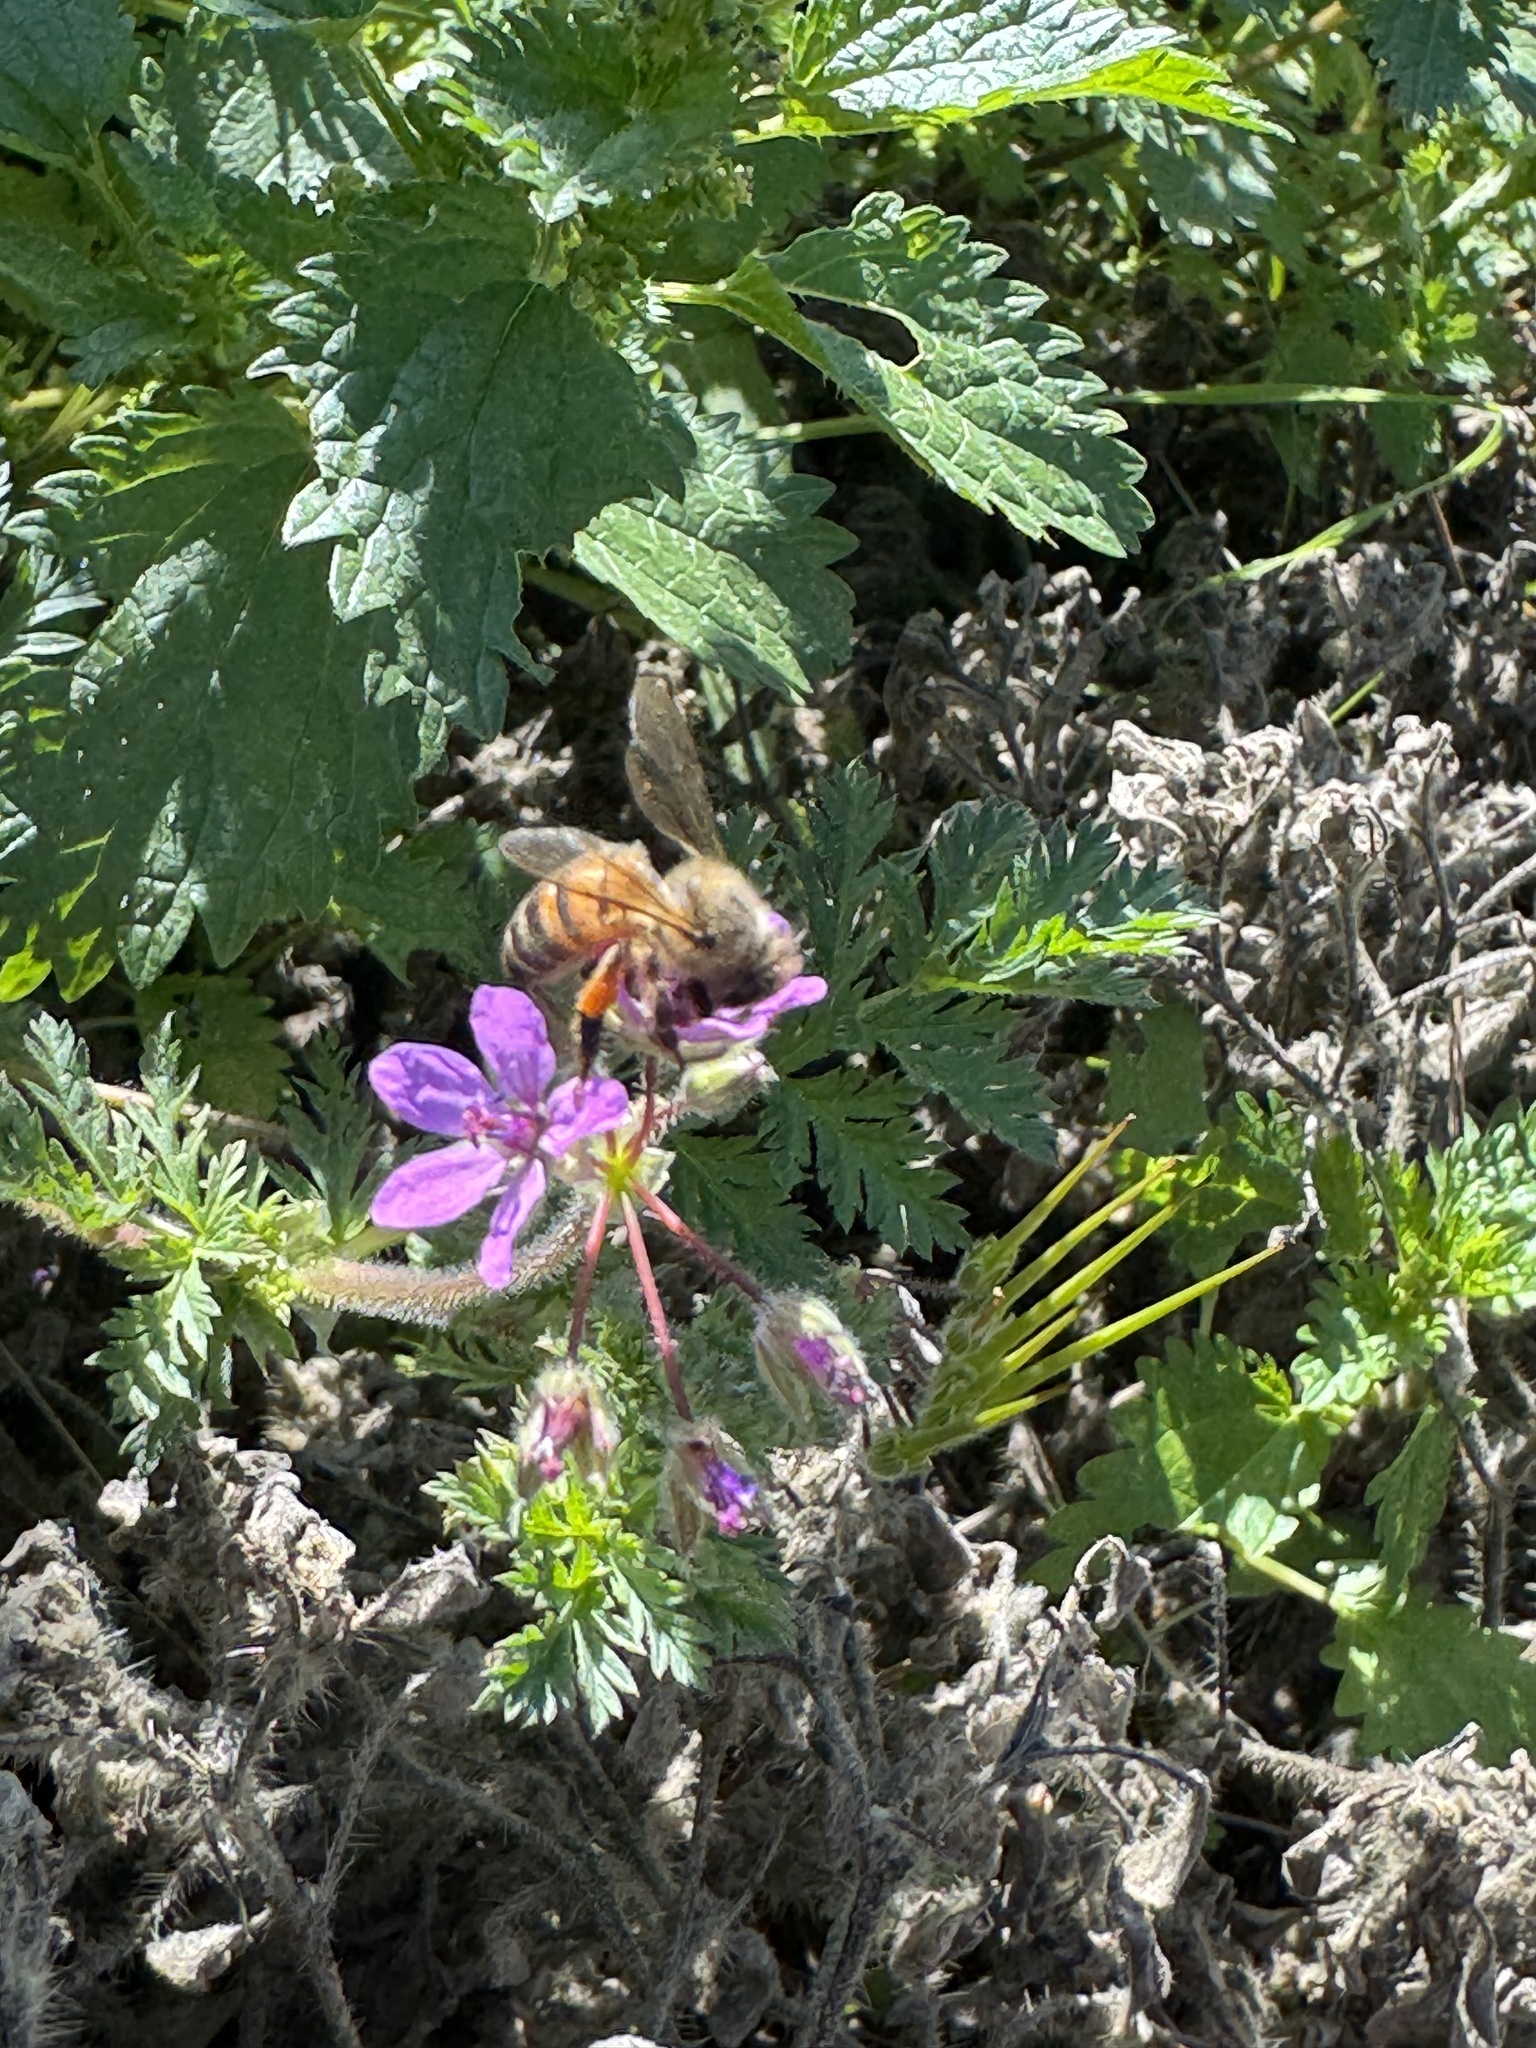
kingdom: Animalia
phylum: Arthropoda
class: Insecta
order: Hymenoptera
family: Apidae
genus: Apis
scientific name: Apis mellifera
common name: Honey bee
